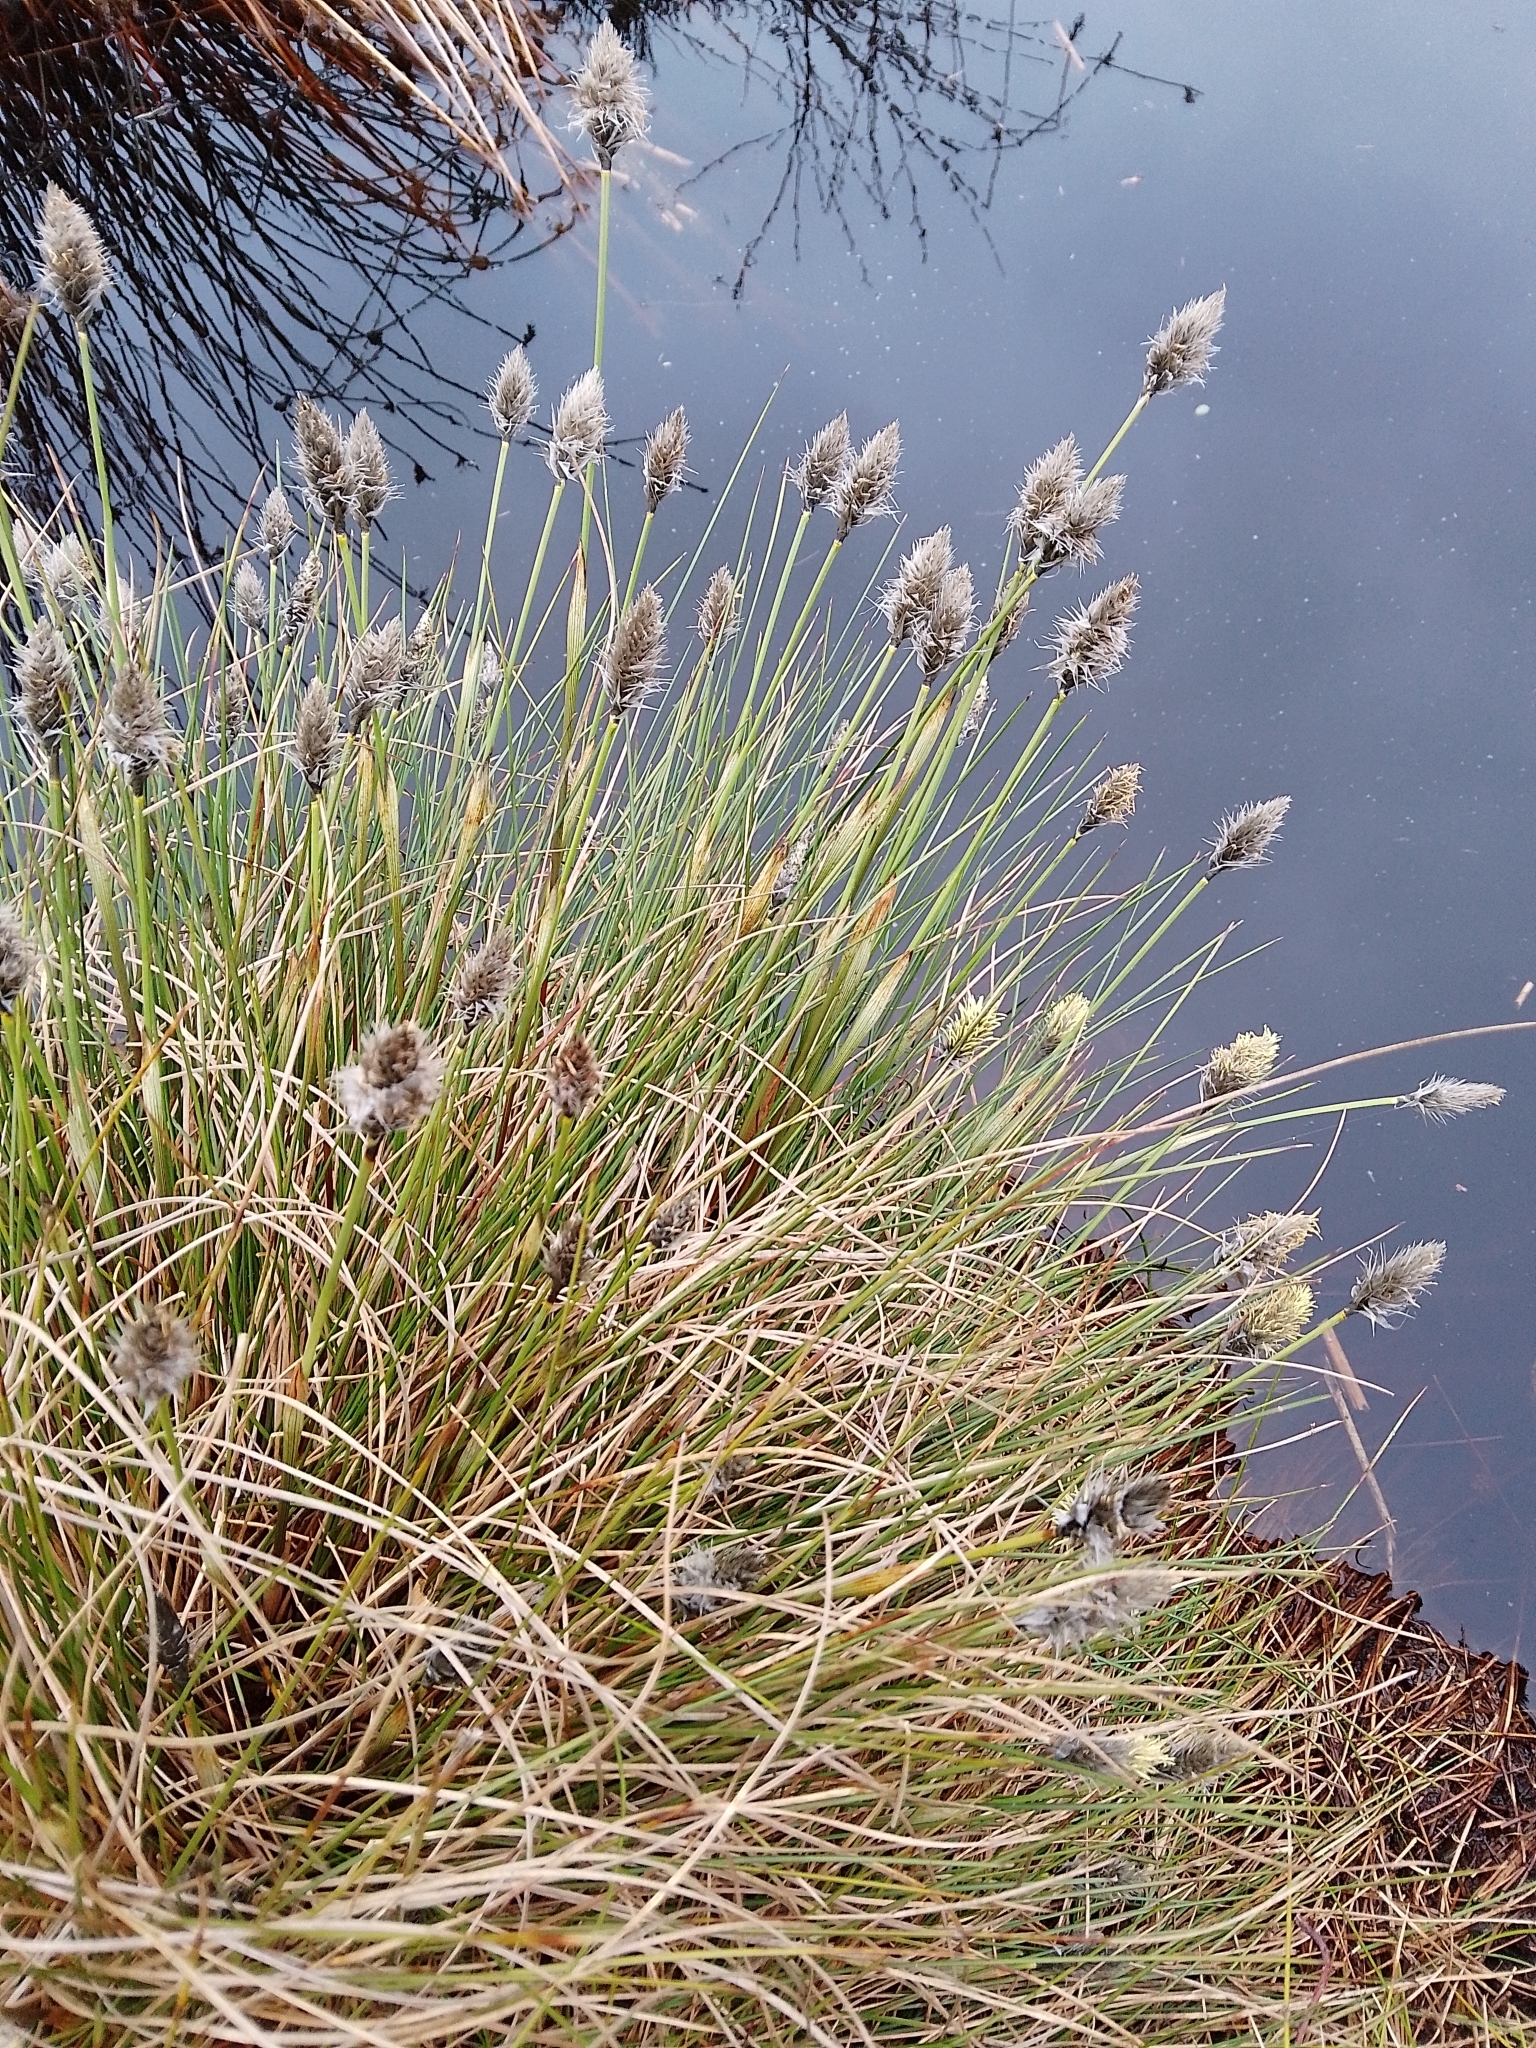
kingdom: Plantae
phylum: Tracheophyta
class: Liliopsida
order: Poales
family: Cyperaceae
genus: Eriophorum
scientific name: Eriophorum vaginatum
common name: Hare's-tail cottongrass
